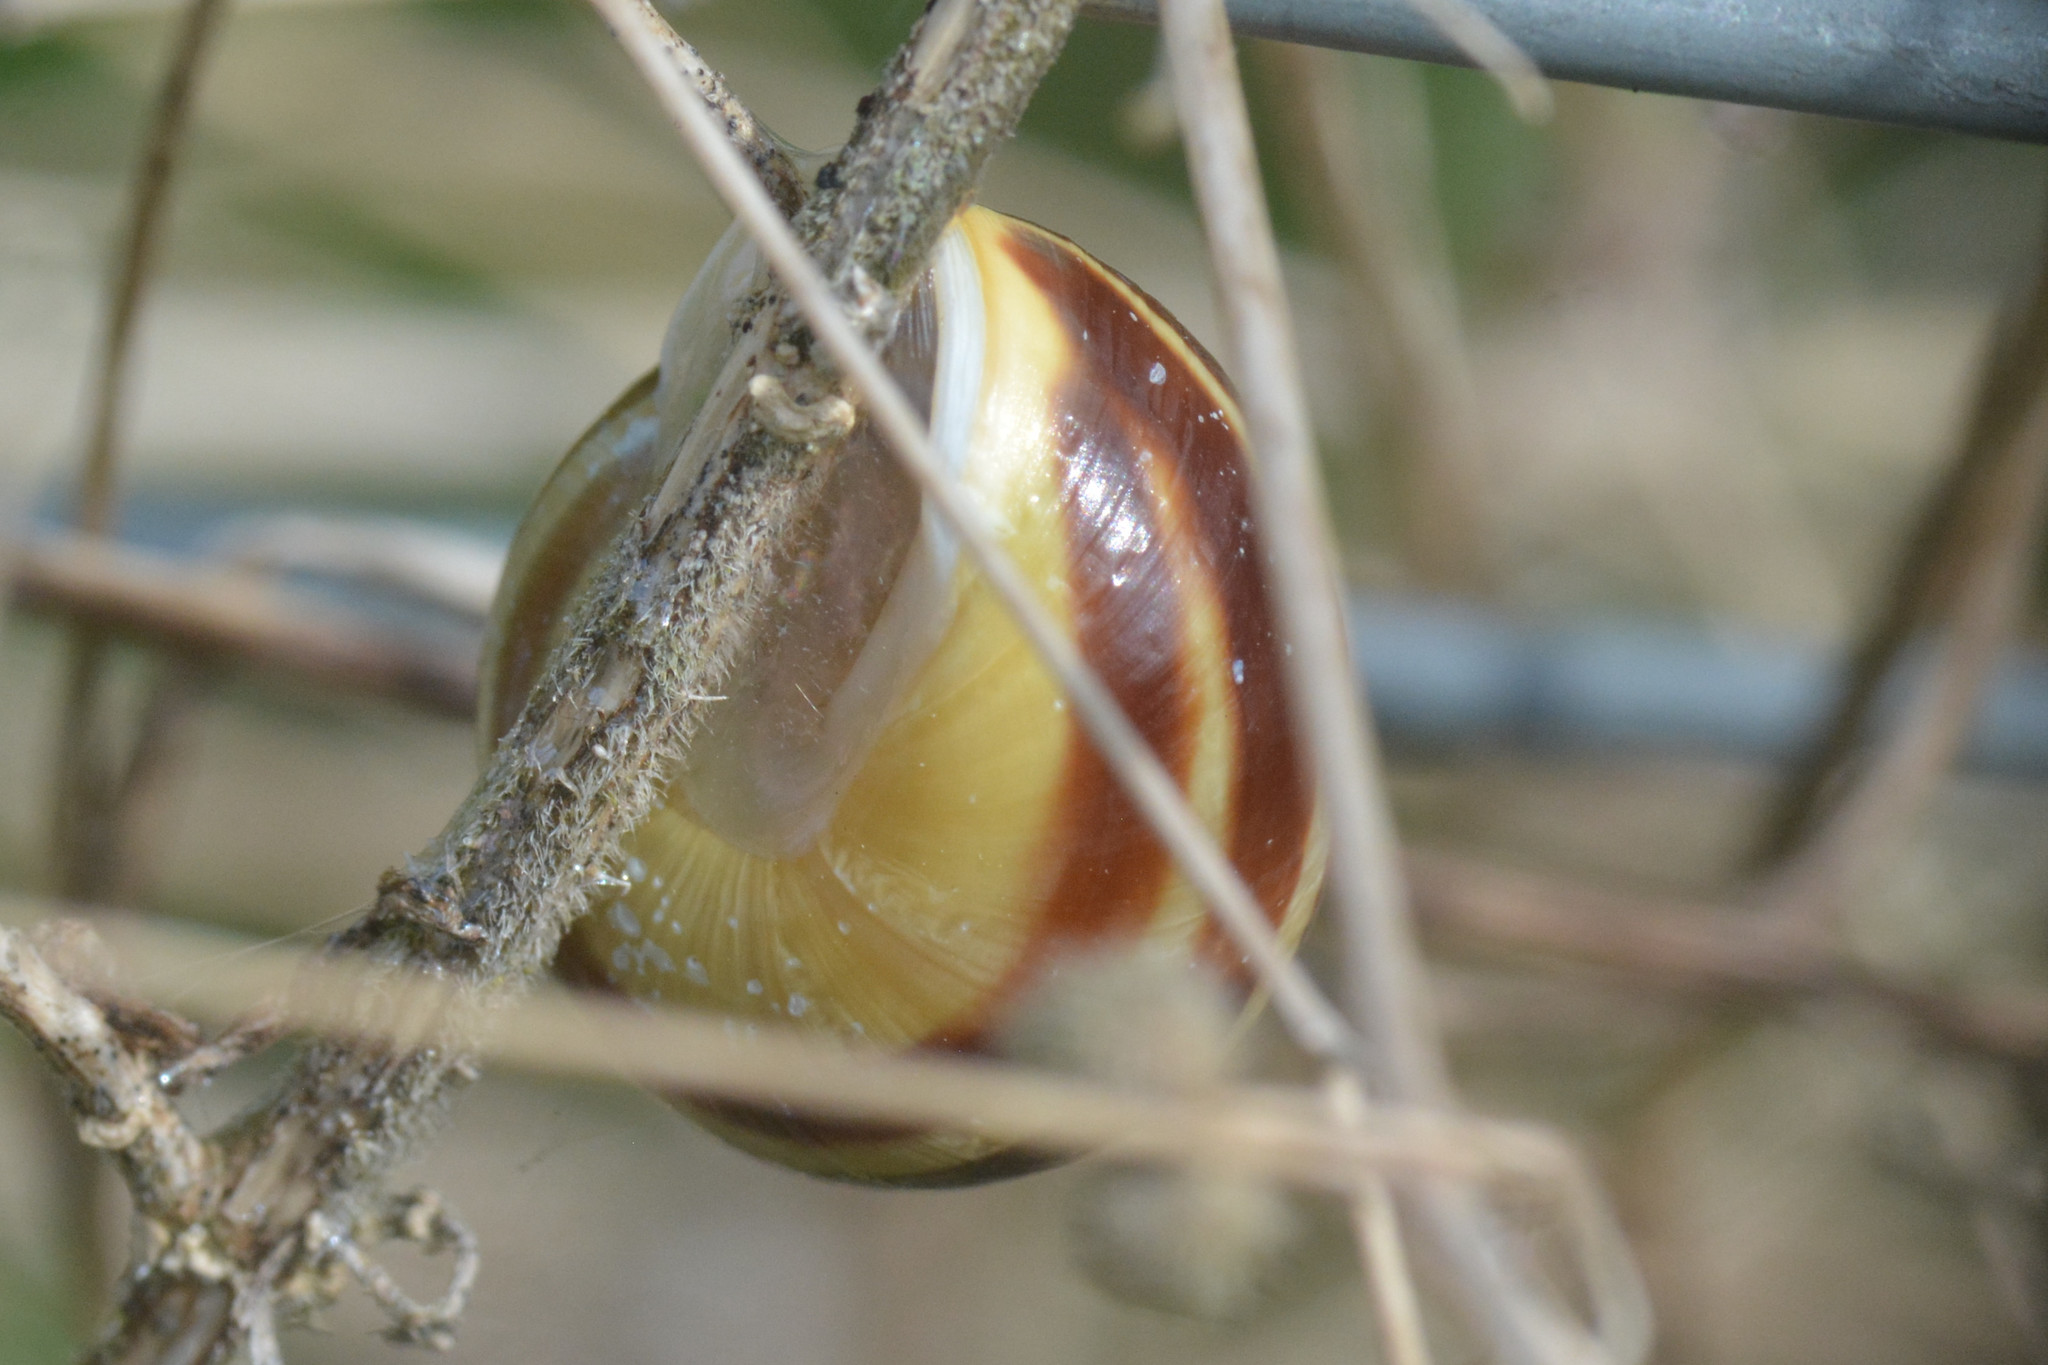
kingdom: Animalia
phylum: Mollusca
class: Gastropoda
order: Stylommatophora
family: Helicidae
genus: Cepaea
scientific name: Cepaea hortensis
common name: White-lip gardensnail
